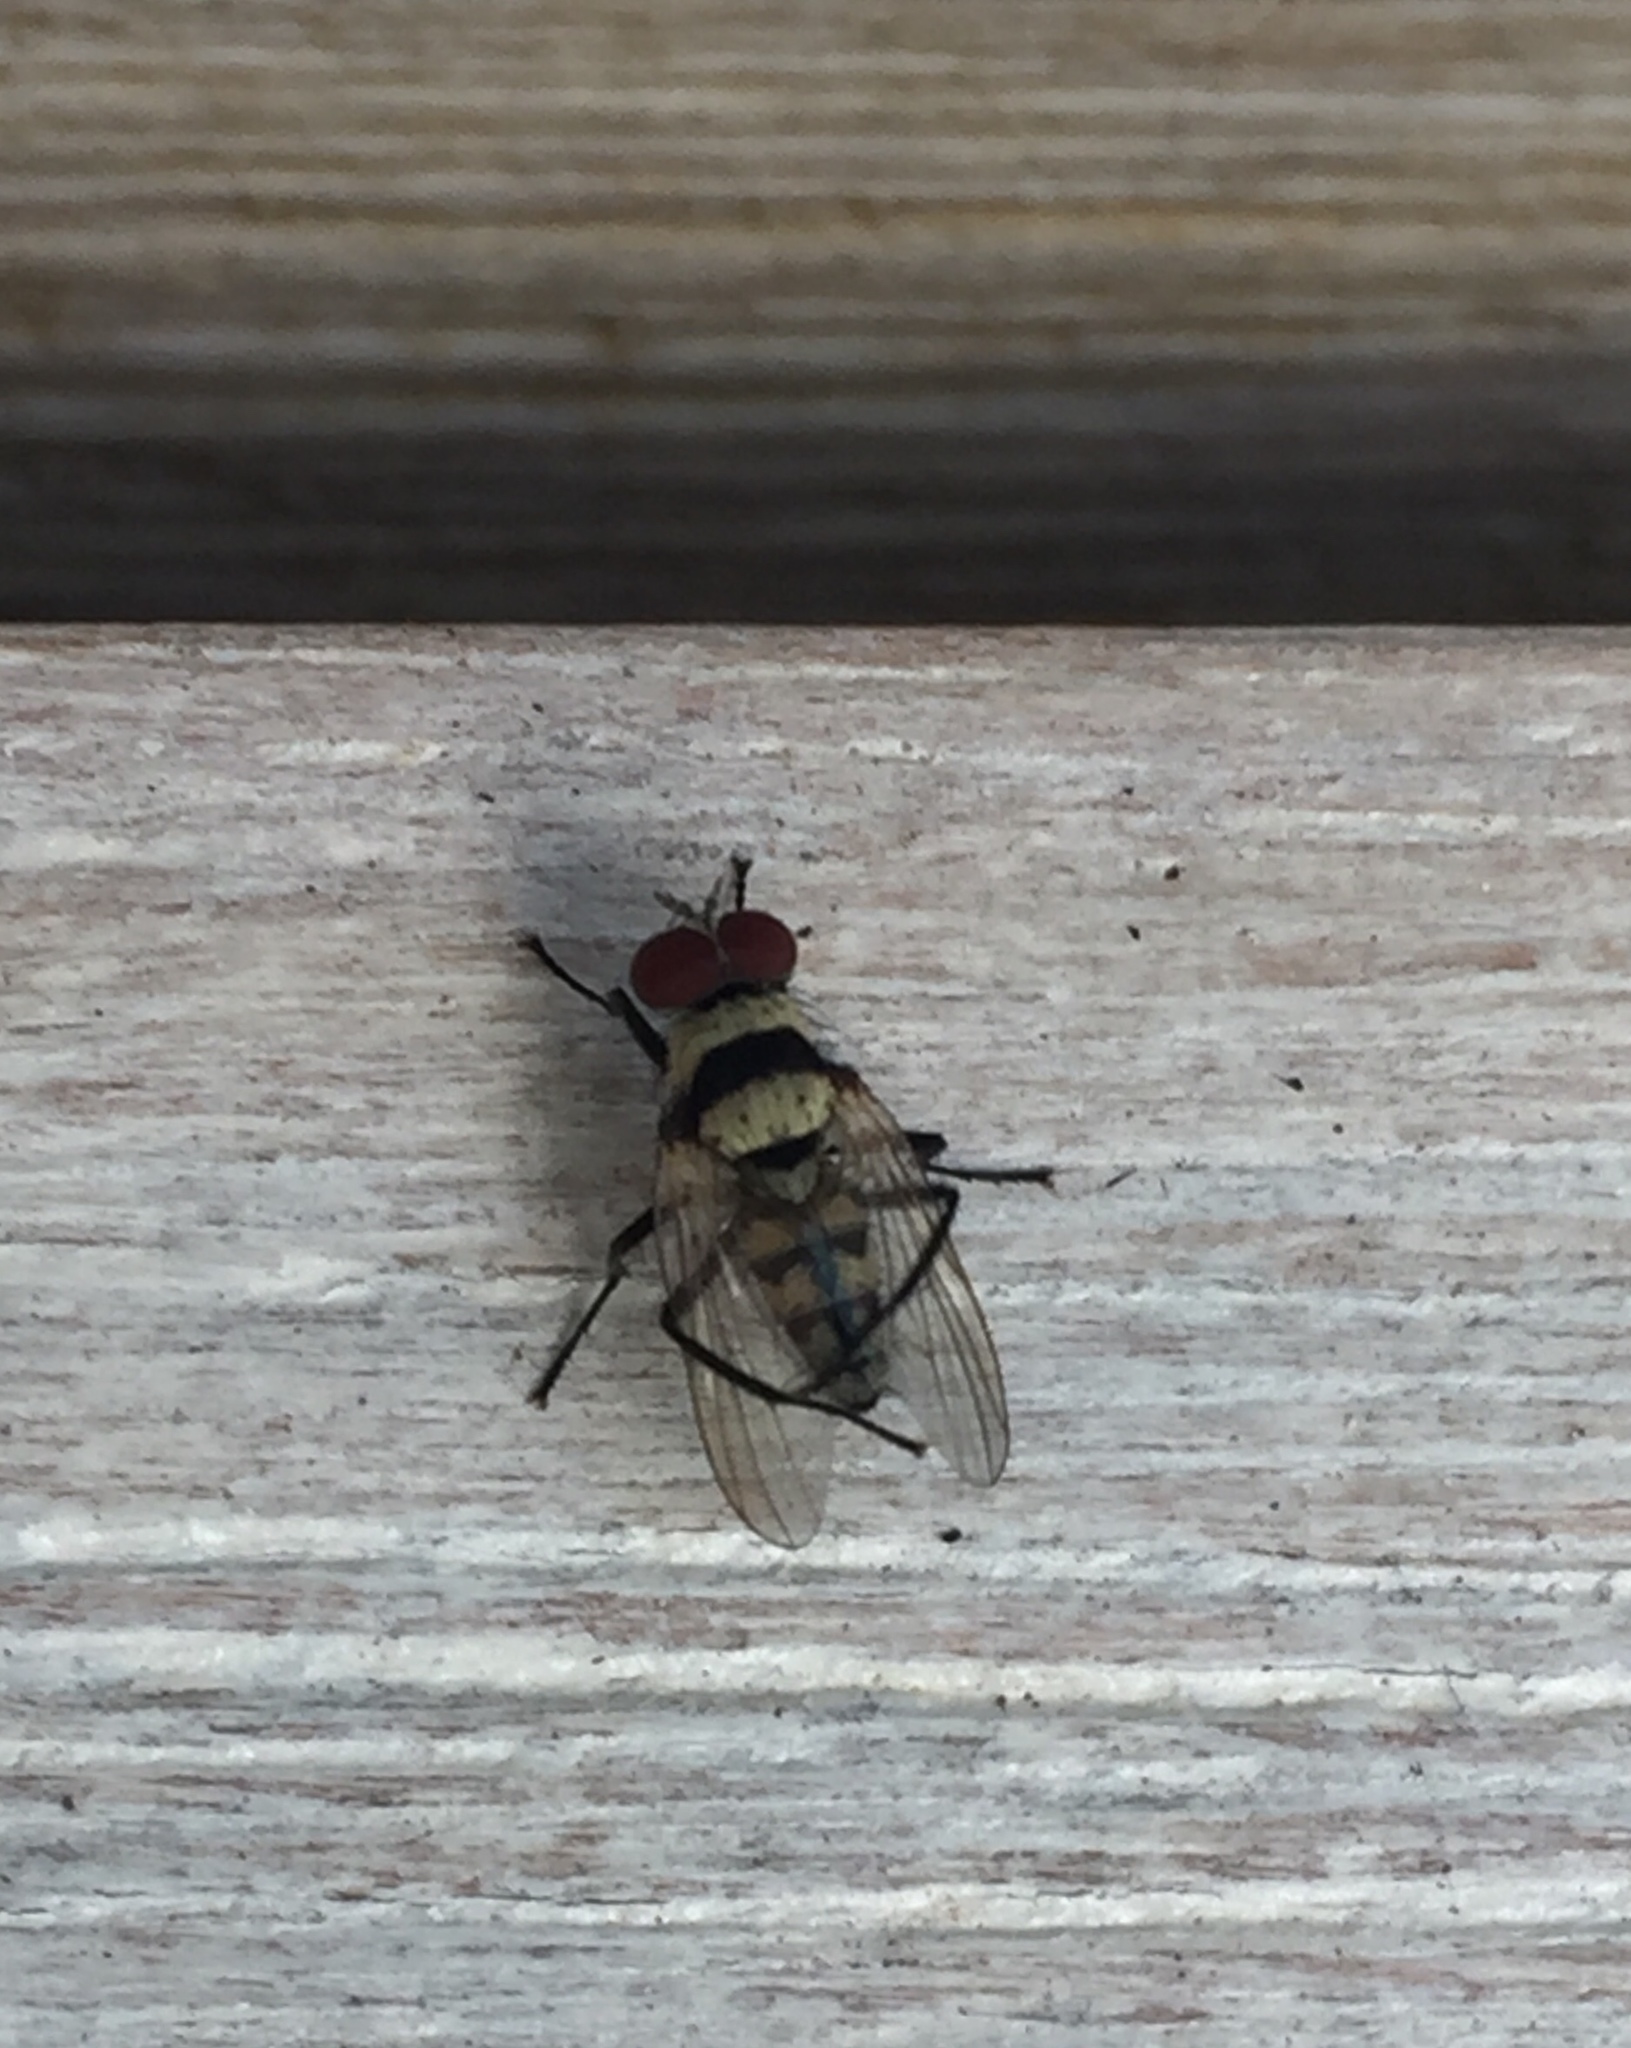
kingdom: Animalia
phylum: Arthropoda
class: Insecta
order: Diptera
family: Anthomyiidae
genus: Anthomyia
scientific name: Anthomyia illocata
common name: Fly
